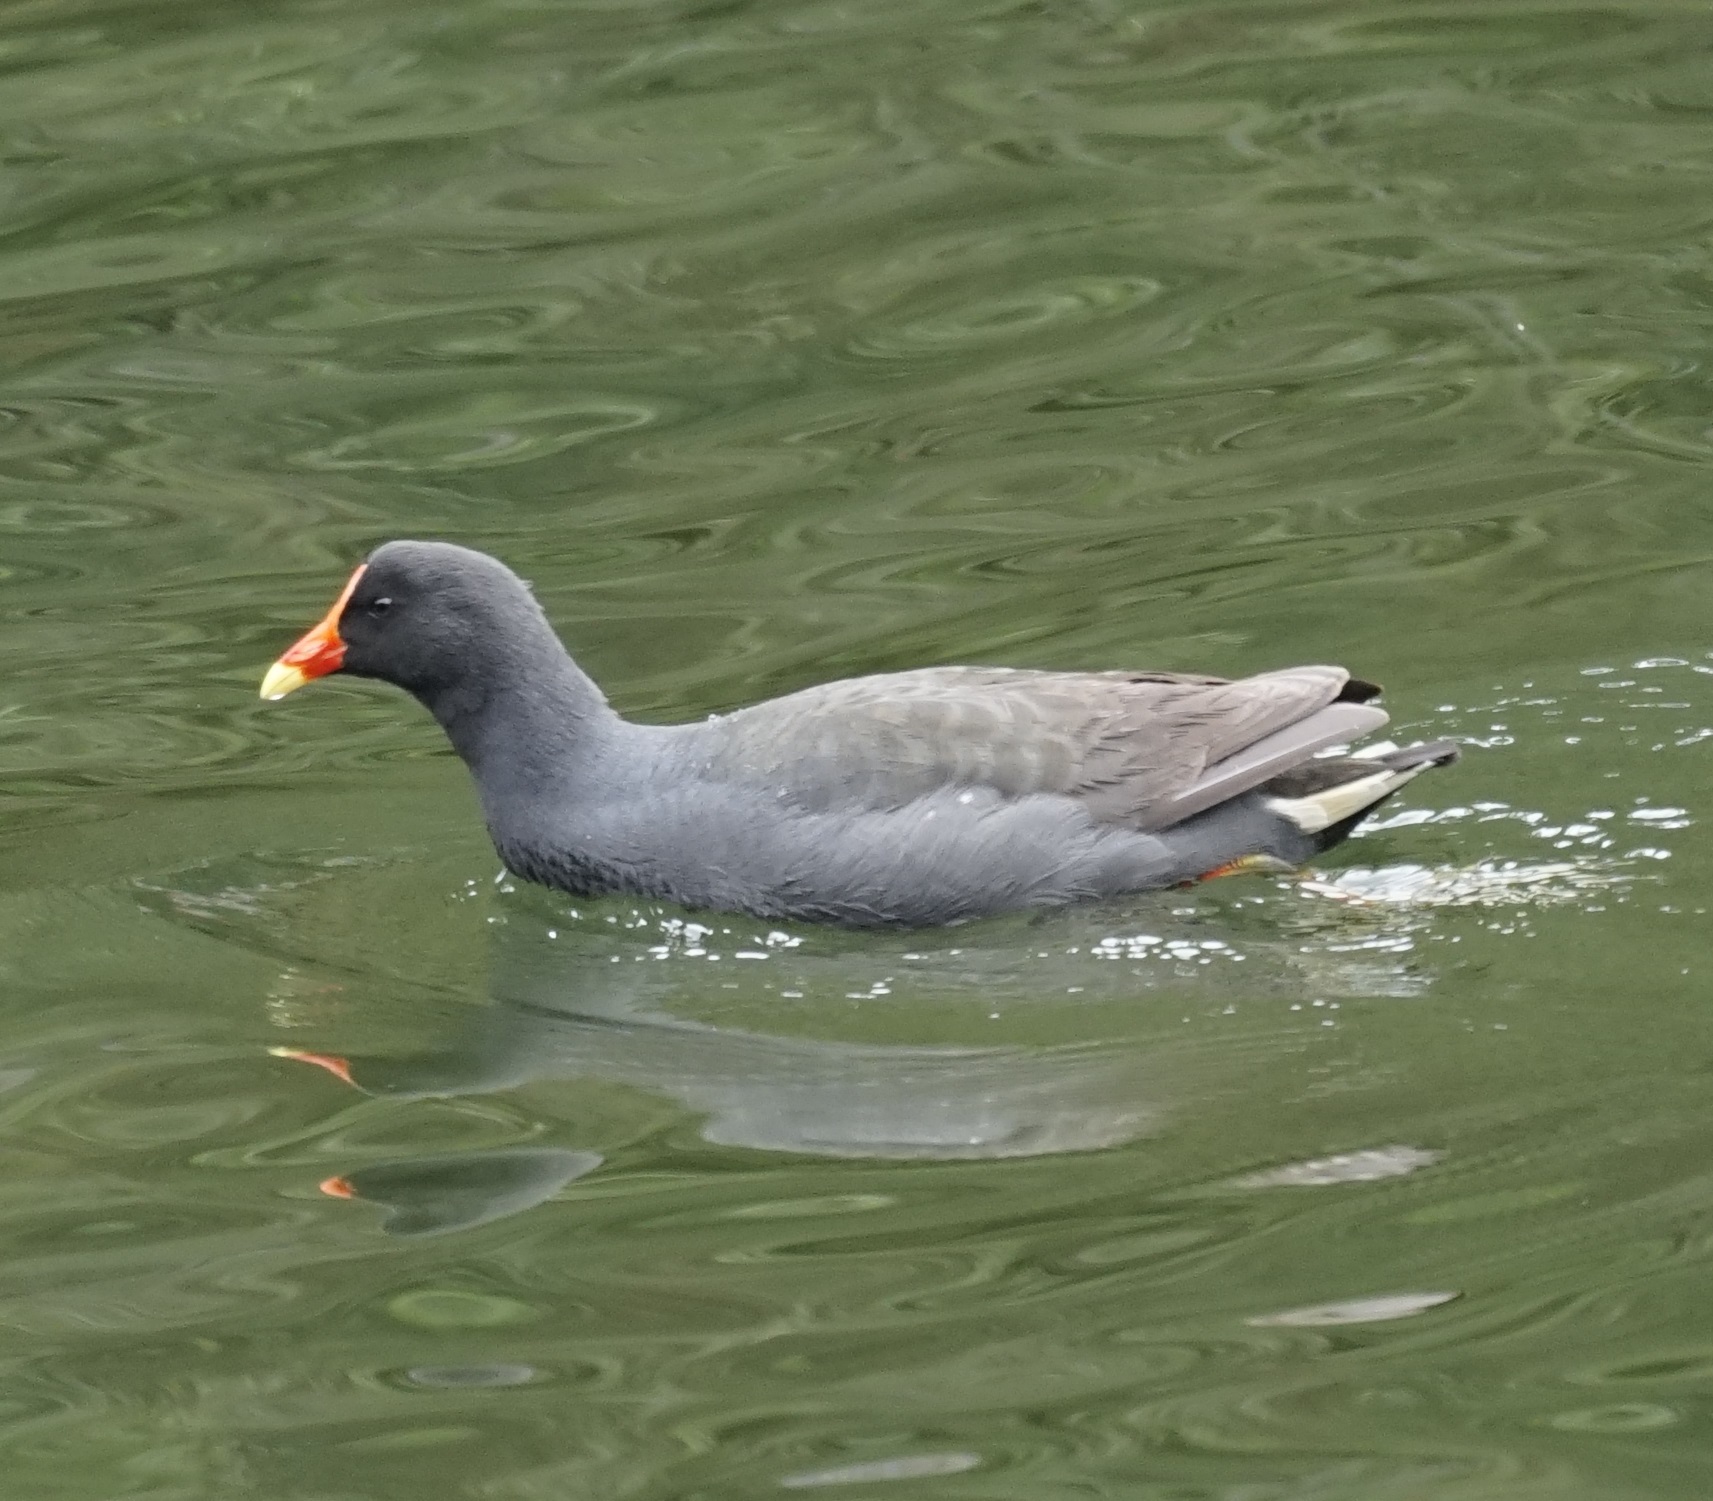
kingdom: Animalia
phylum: Chordata
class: Aves
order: Gruiformes
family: Rallidae
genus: Gallinula
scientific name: Gallinula tenebrosa
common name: Dusky moorhen
